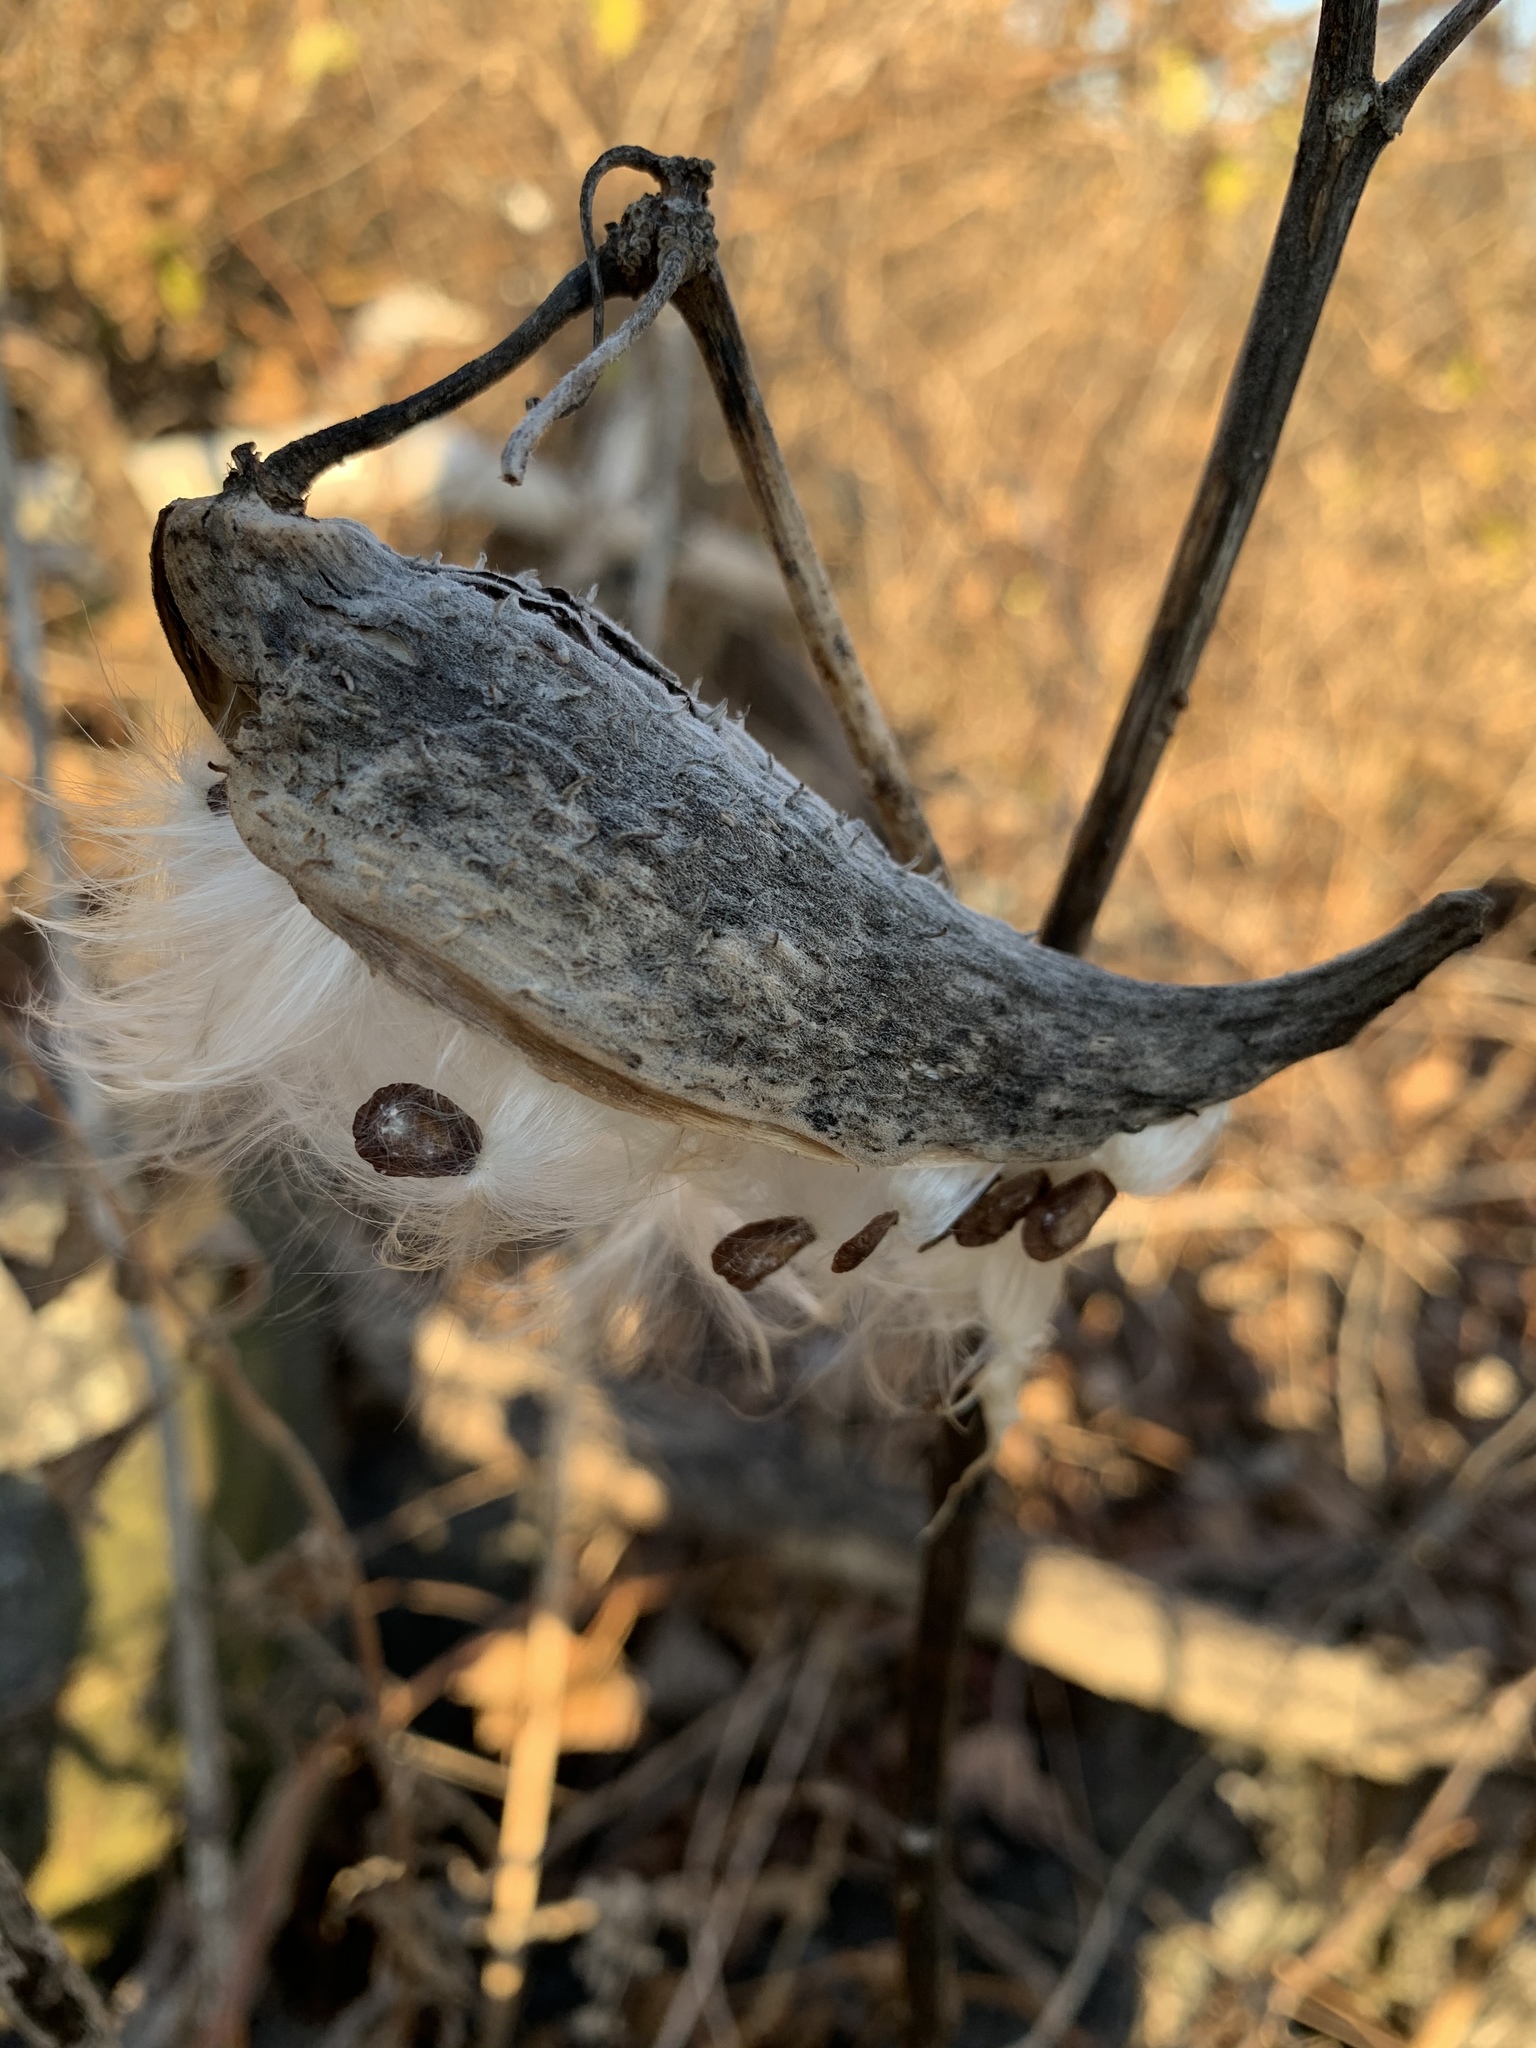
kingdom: Plantae
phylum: Tracheophyta
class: Magnoliopsida
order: Gentianales
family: Apocynaceae
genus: Asclepias
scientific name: Asclepias syriaca
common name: Common milkweed
